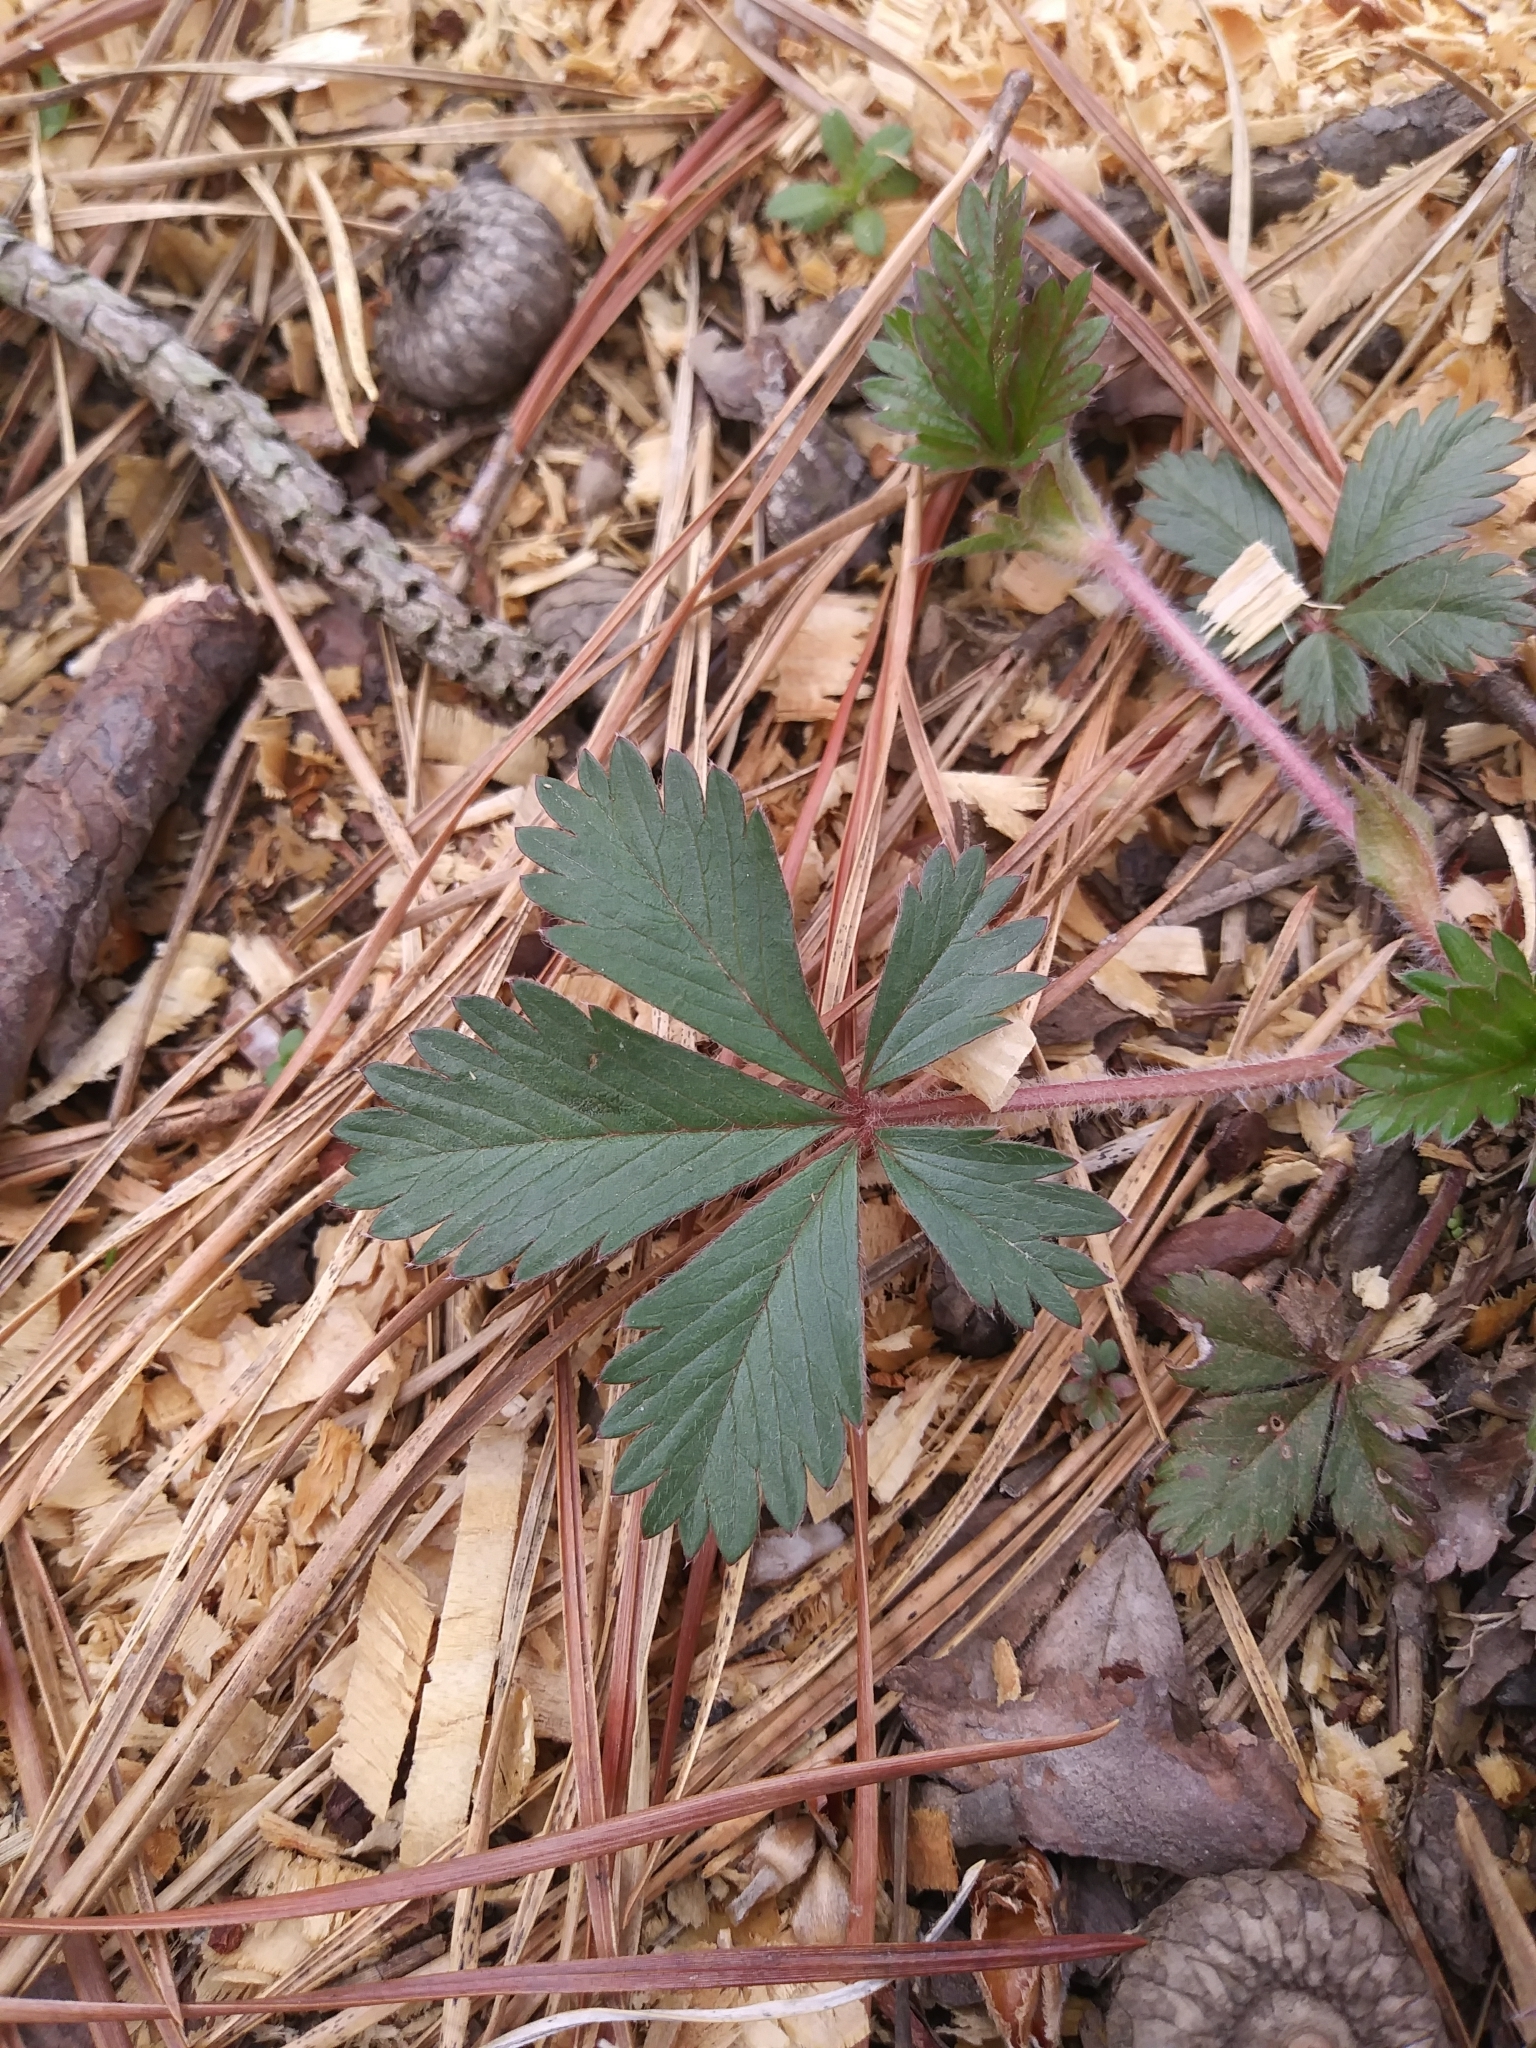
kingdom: Plantae
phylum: Tracheophyta
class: Magnoliopsida
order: Rosales
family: Rosaceae
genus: Potentilla
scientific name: Potentilla canadensis
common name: Canada cinquefoil
